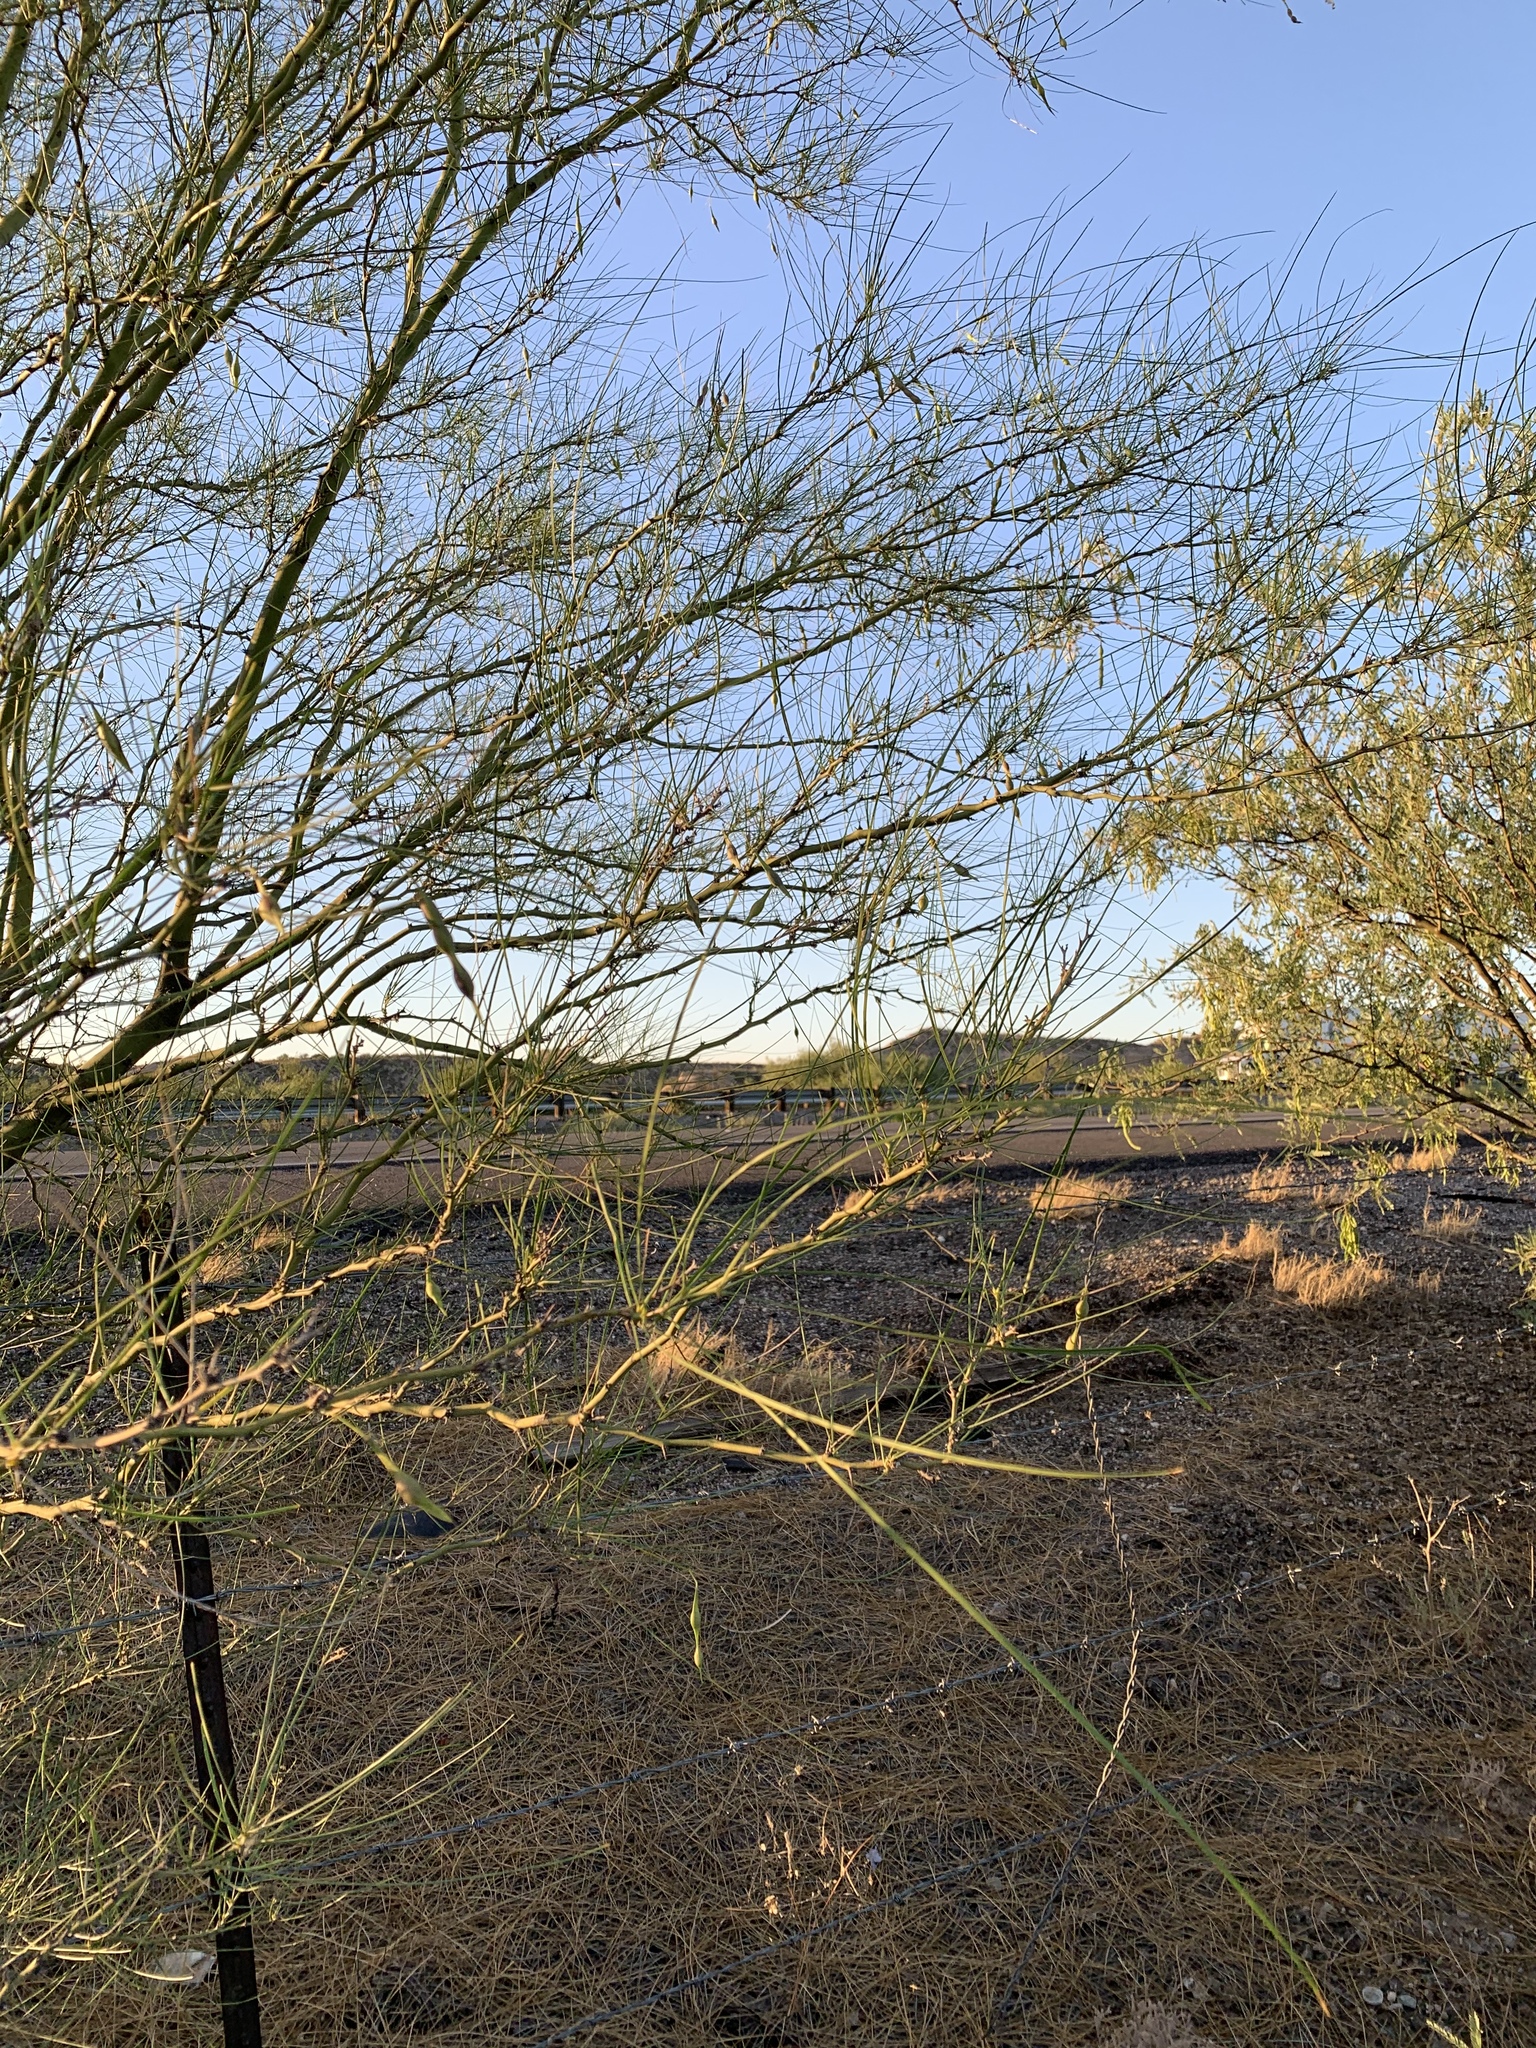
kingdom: Plantae
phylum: Tracheophyta
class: Magnoliopsida
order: Fabales
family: Fabaceae
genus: Parkinsonia
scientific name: Parkinsonia aculeata
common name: Jerusalem thorn
